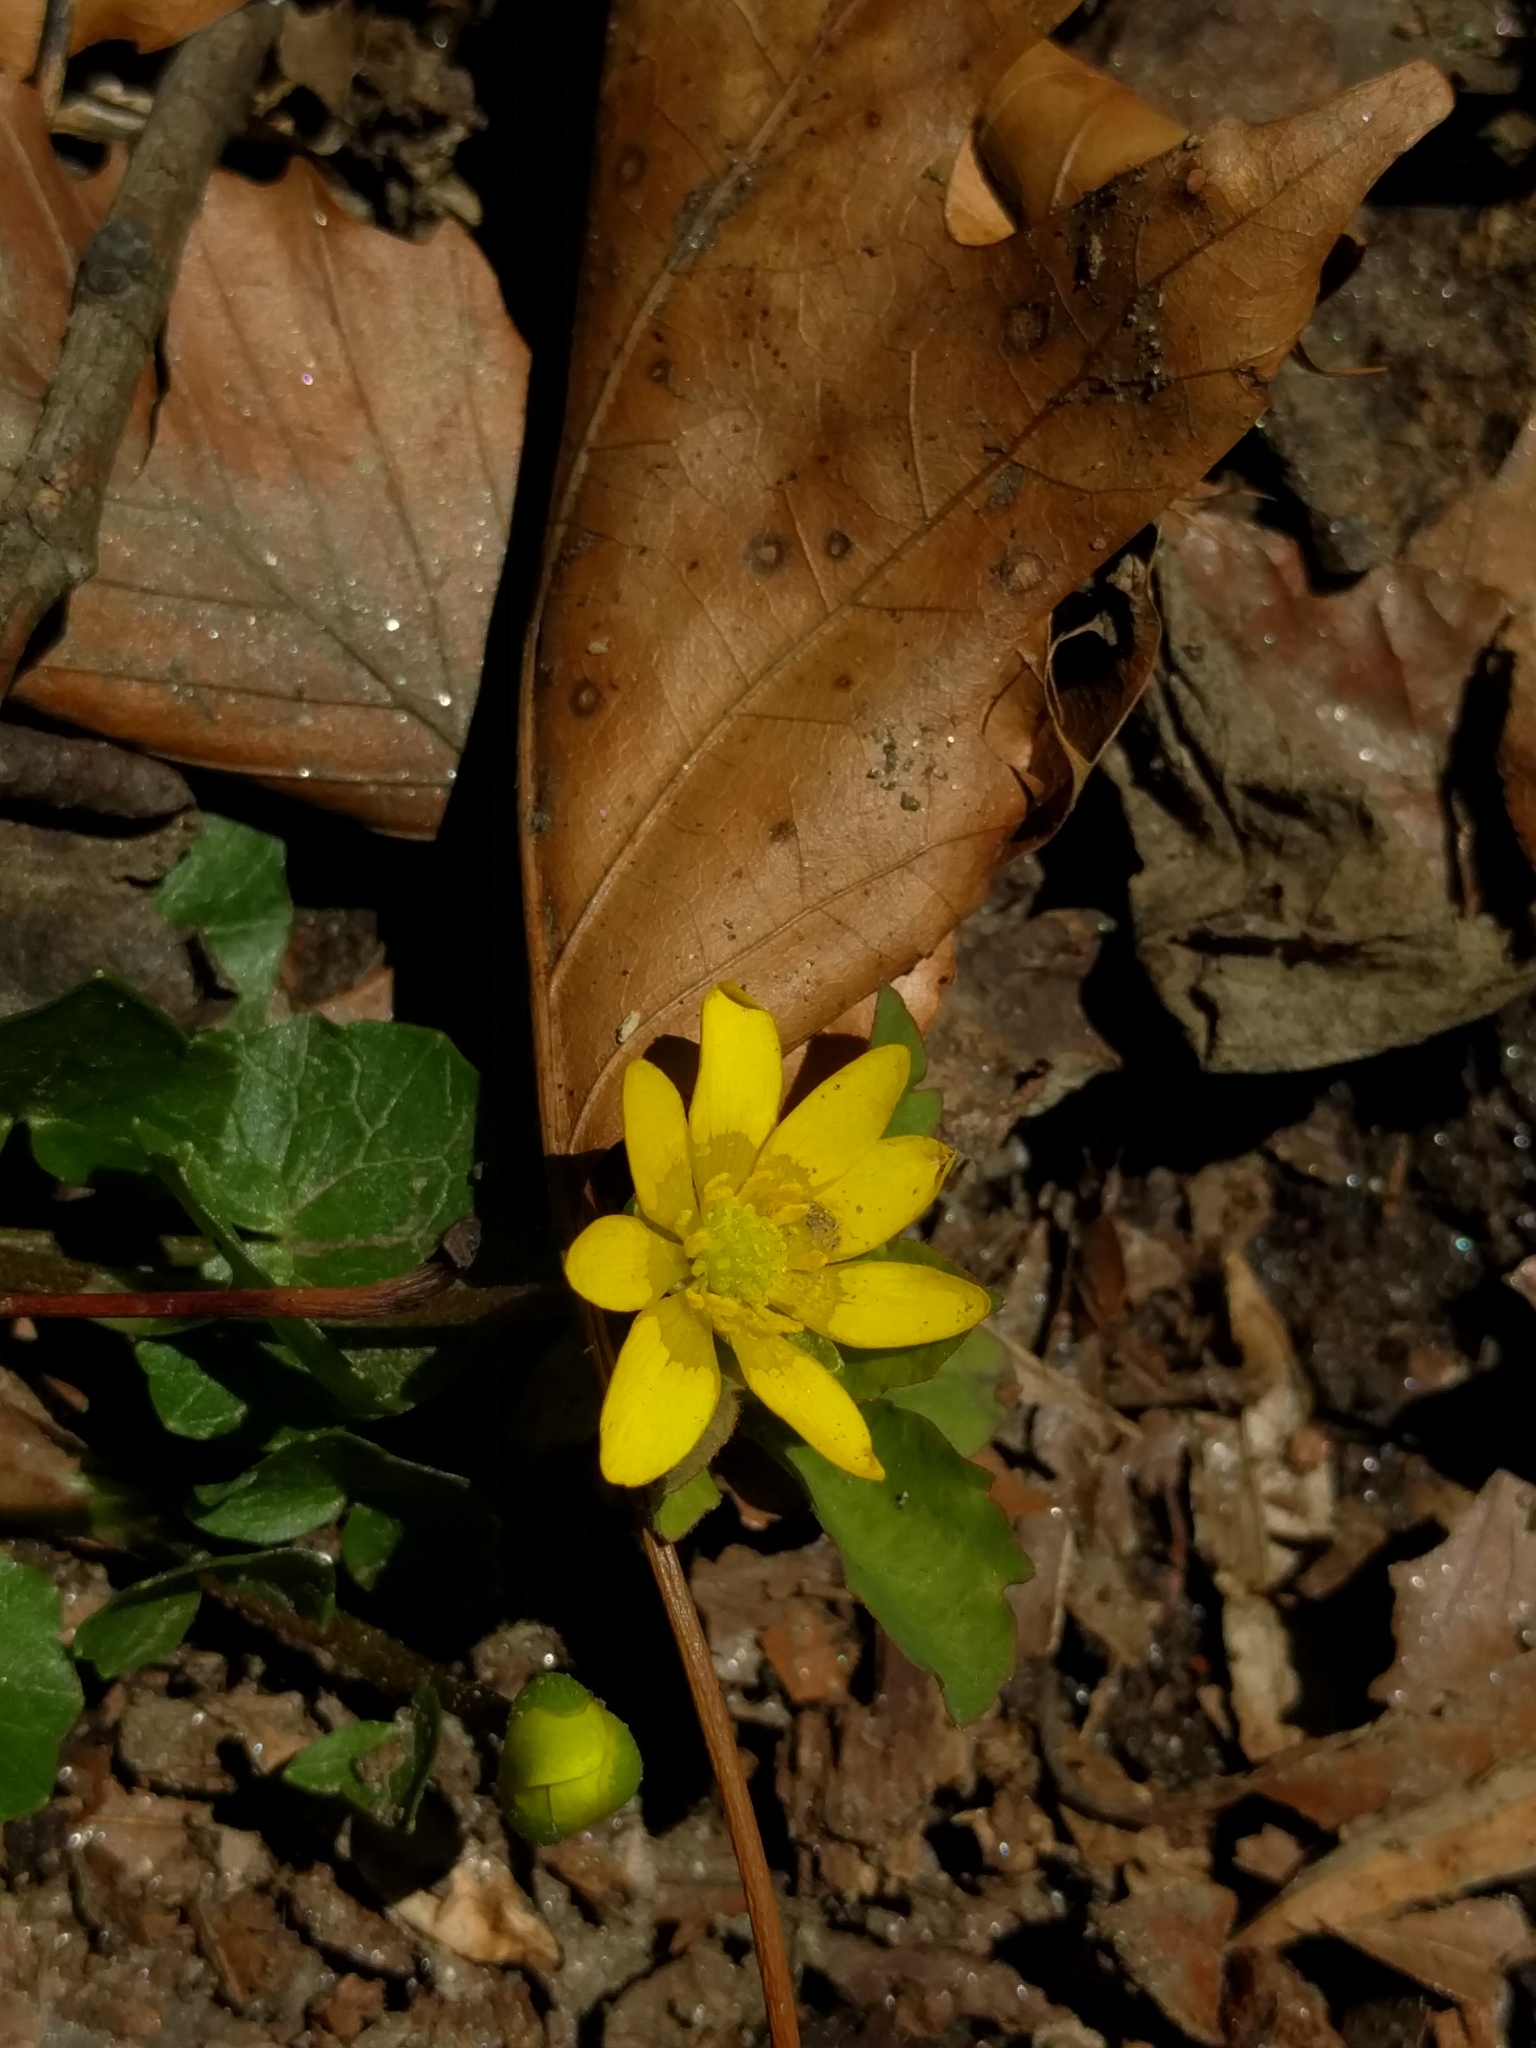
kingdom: Plantae
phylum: Tracheophyta
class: Magnoliopsida
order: Ranunculales
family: Ranunculaceae
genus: Ficaria
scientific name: Ficaria verna
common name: Lesser celandine
